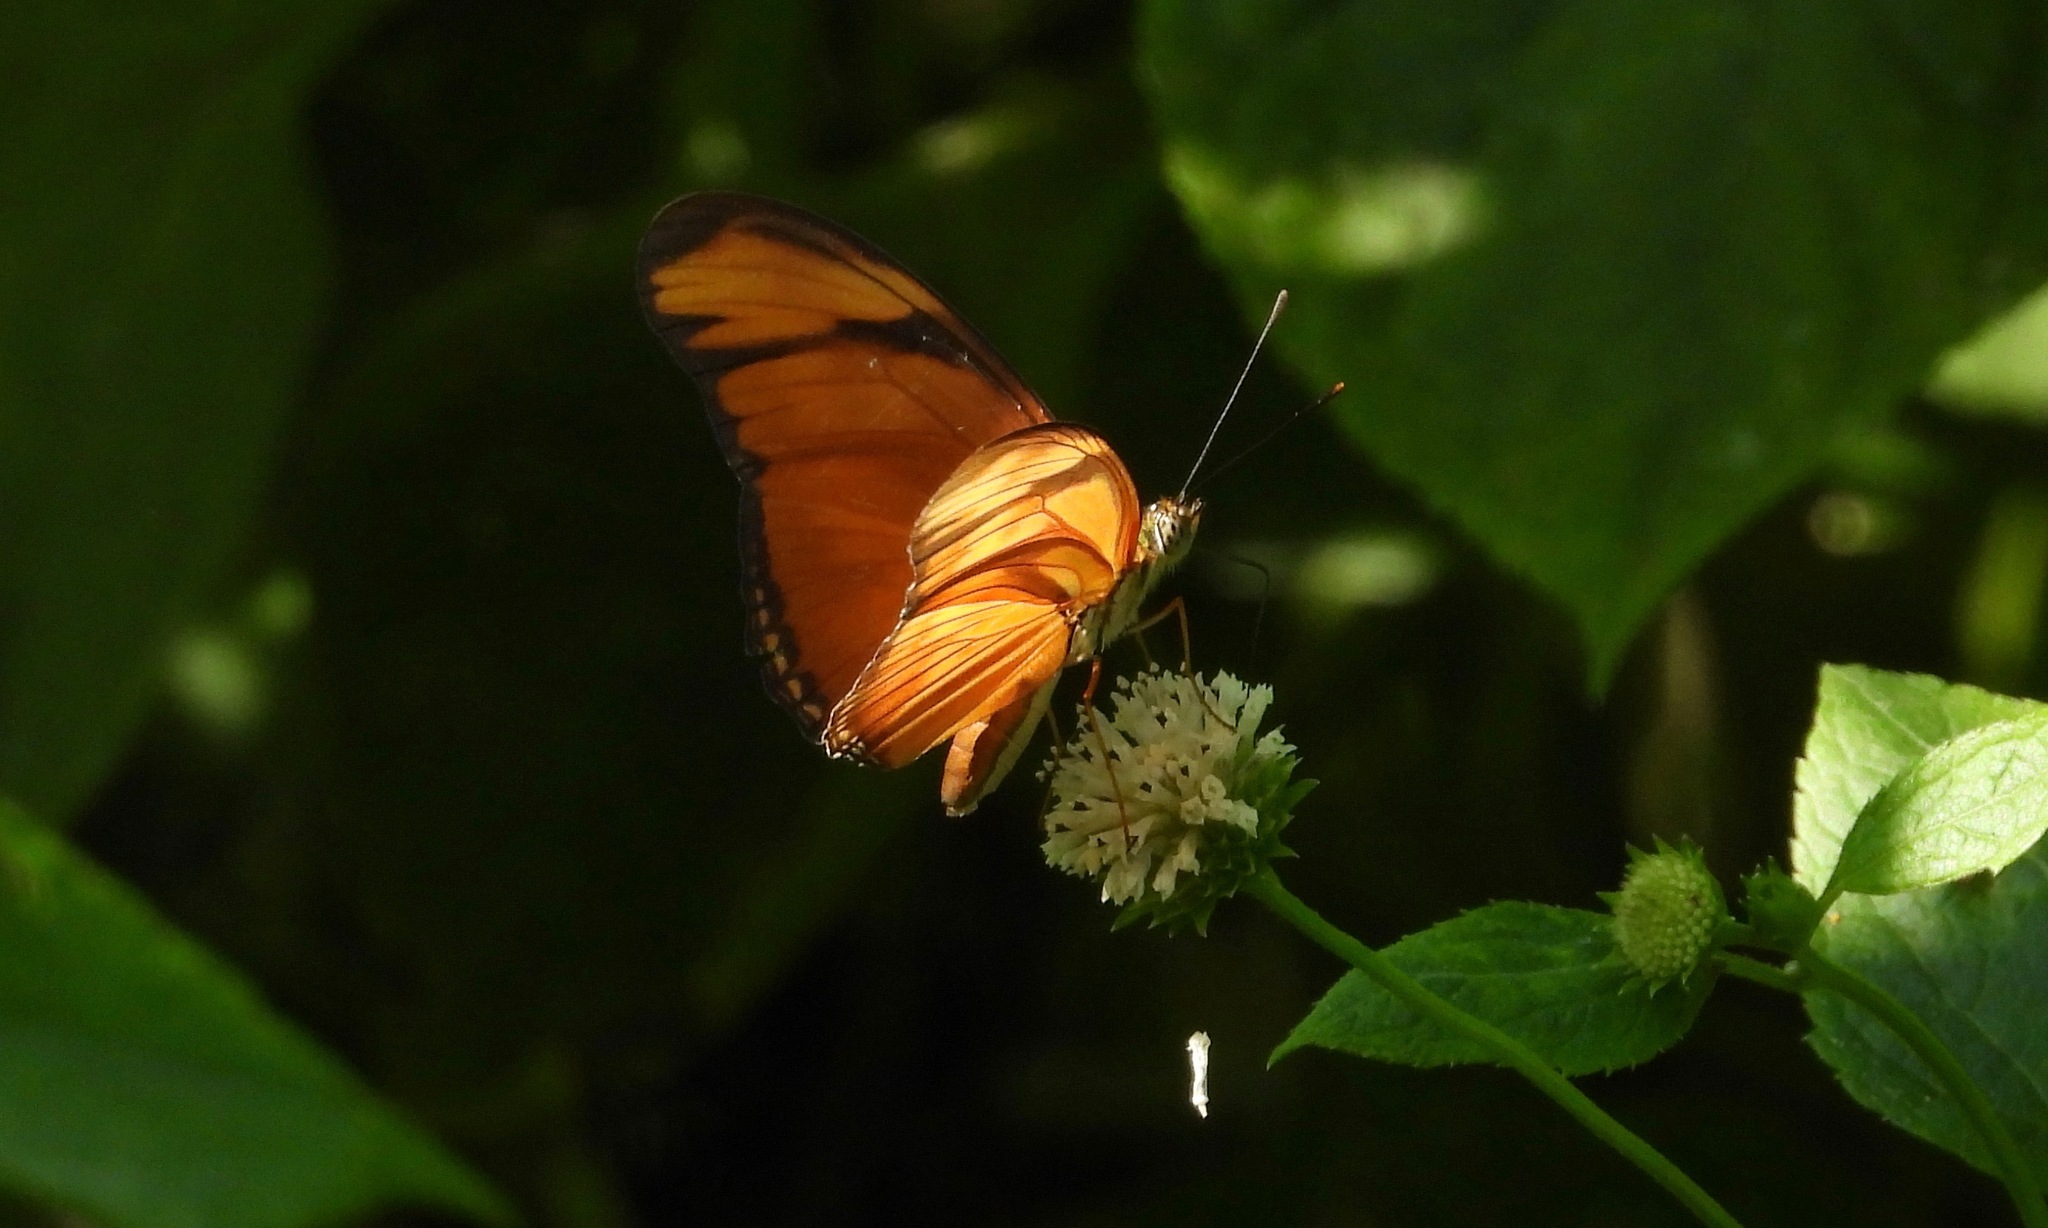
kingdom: Animalia
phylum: Arthropoda
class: Insecta
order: Lepidoptera
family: Nymphalidae
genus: Dryas
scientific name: Dryas iulia
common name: Flambeau
